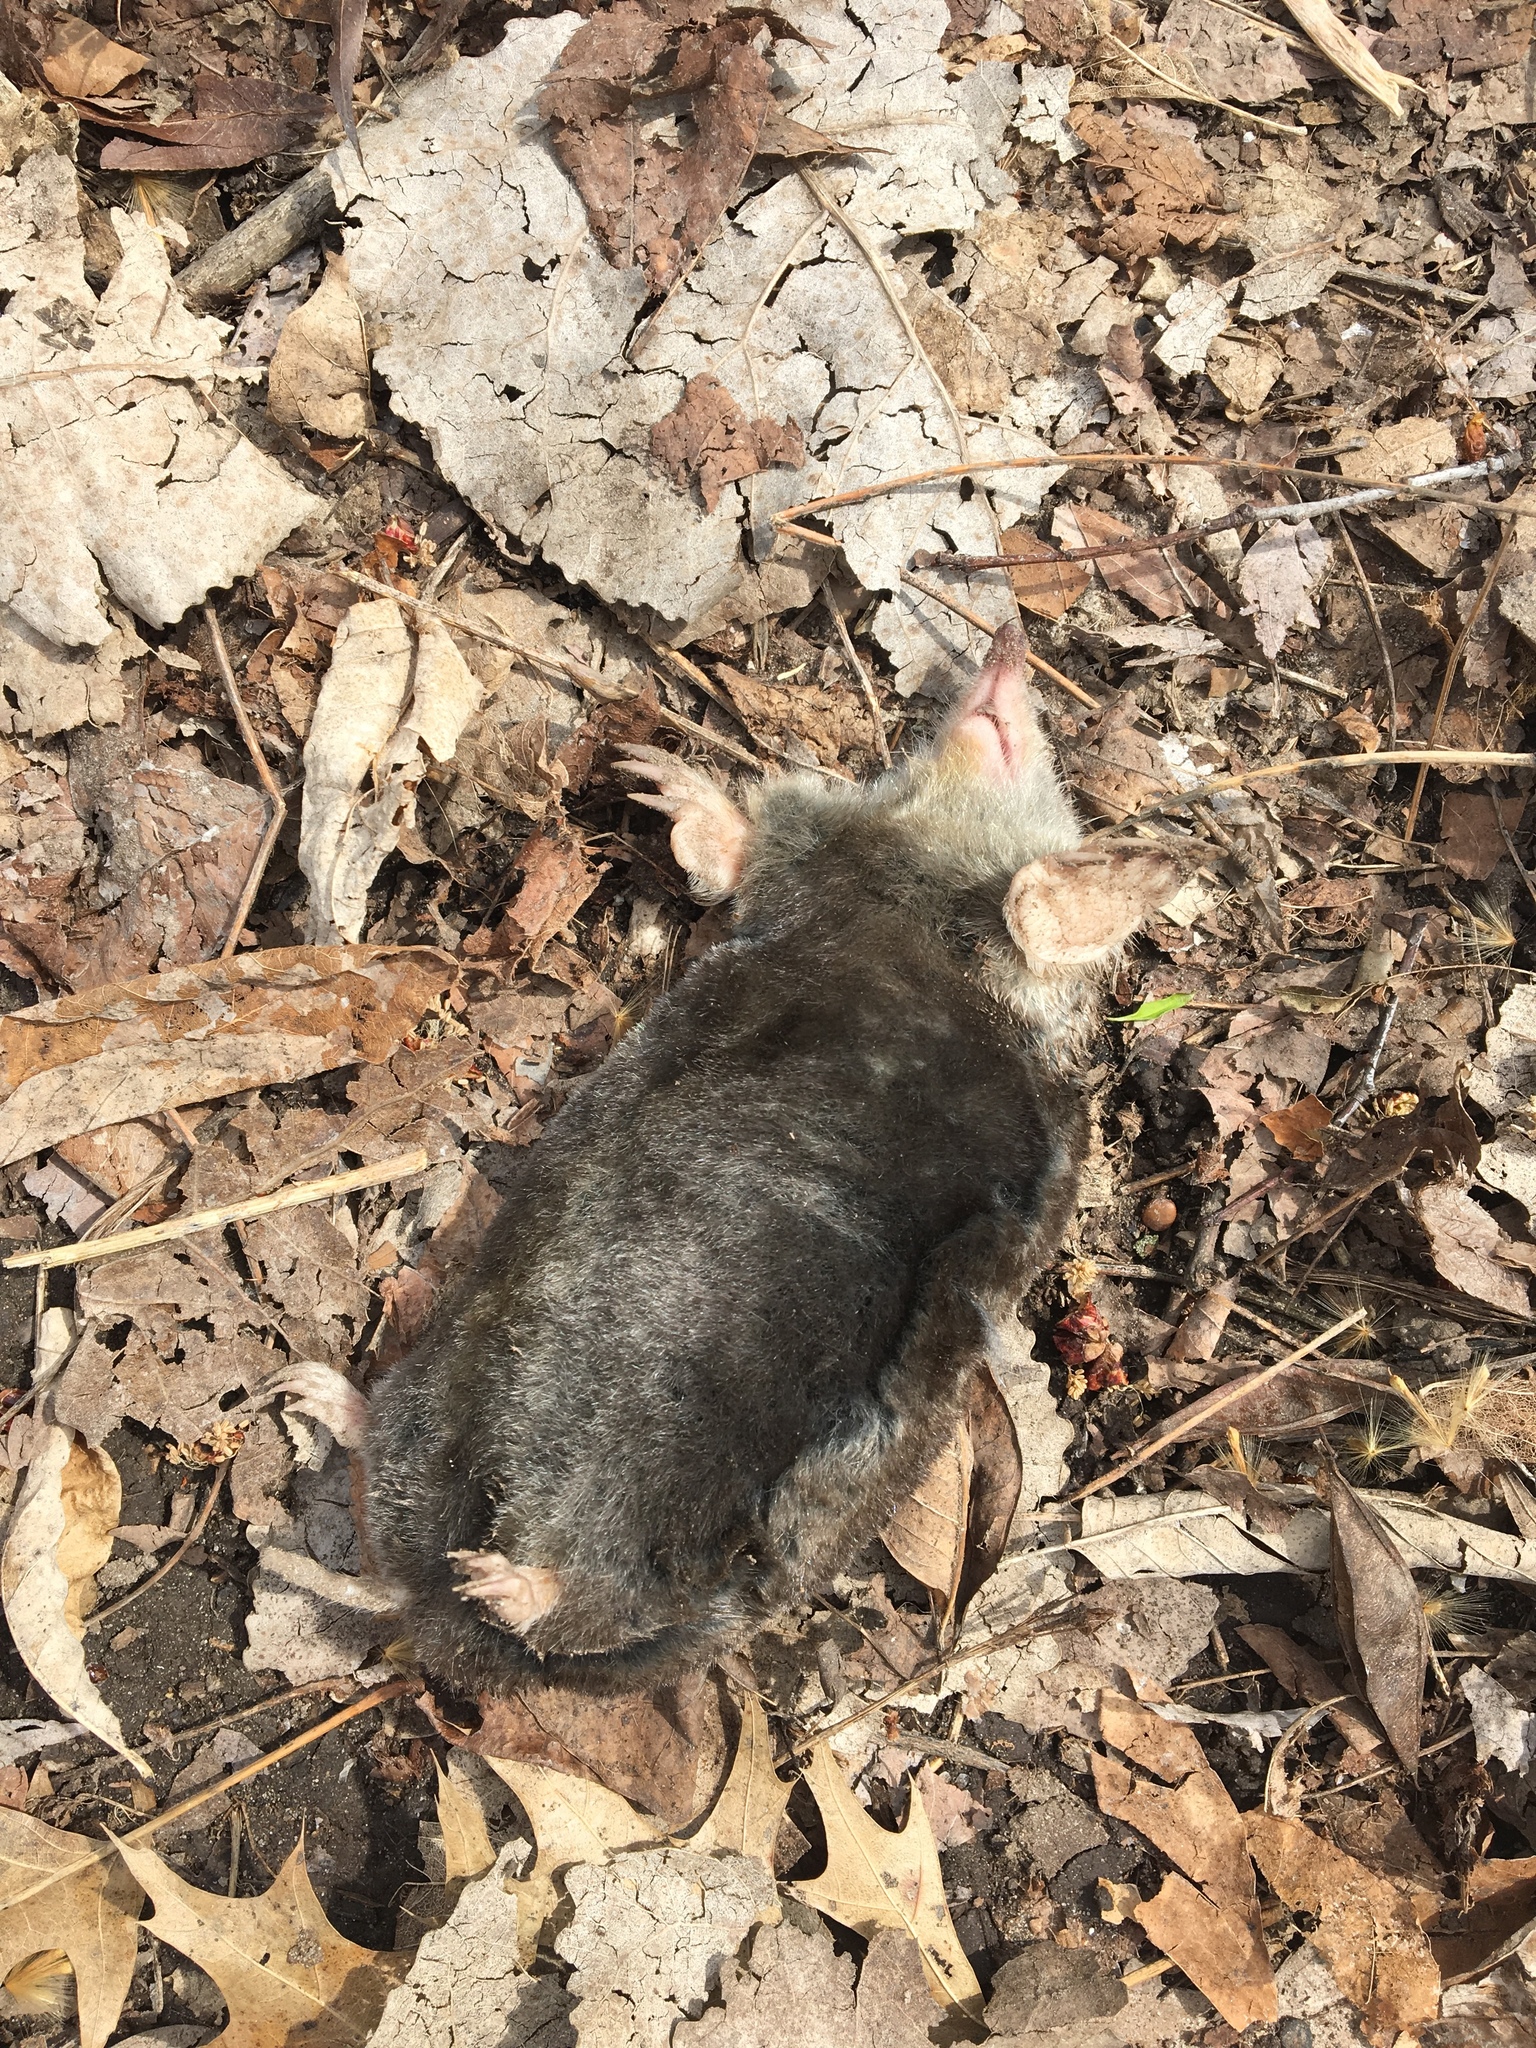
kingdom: Animalia
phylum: Chordata
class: Mammalia
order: Soricomorpha
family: Talpidae
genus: Scalopus
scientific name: Scalopus aquaticus
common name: Eastern mole
